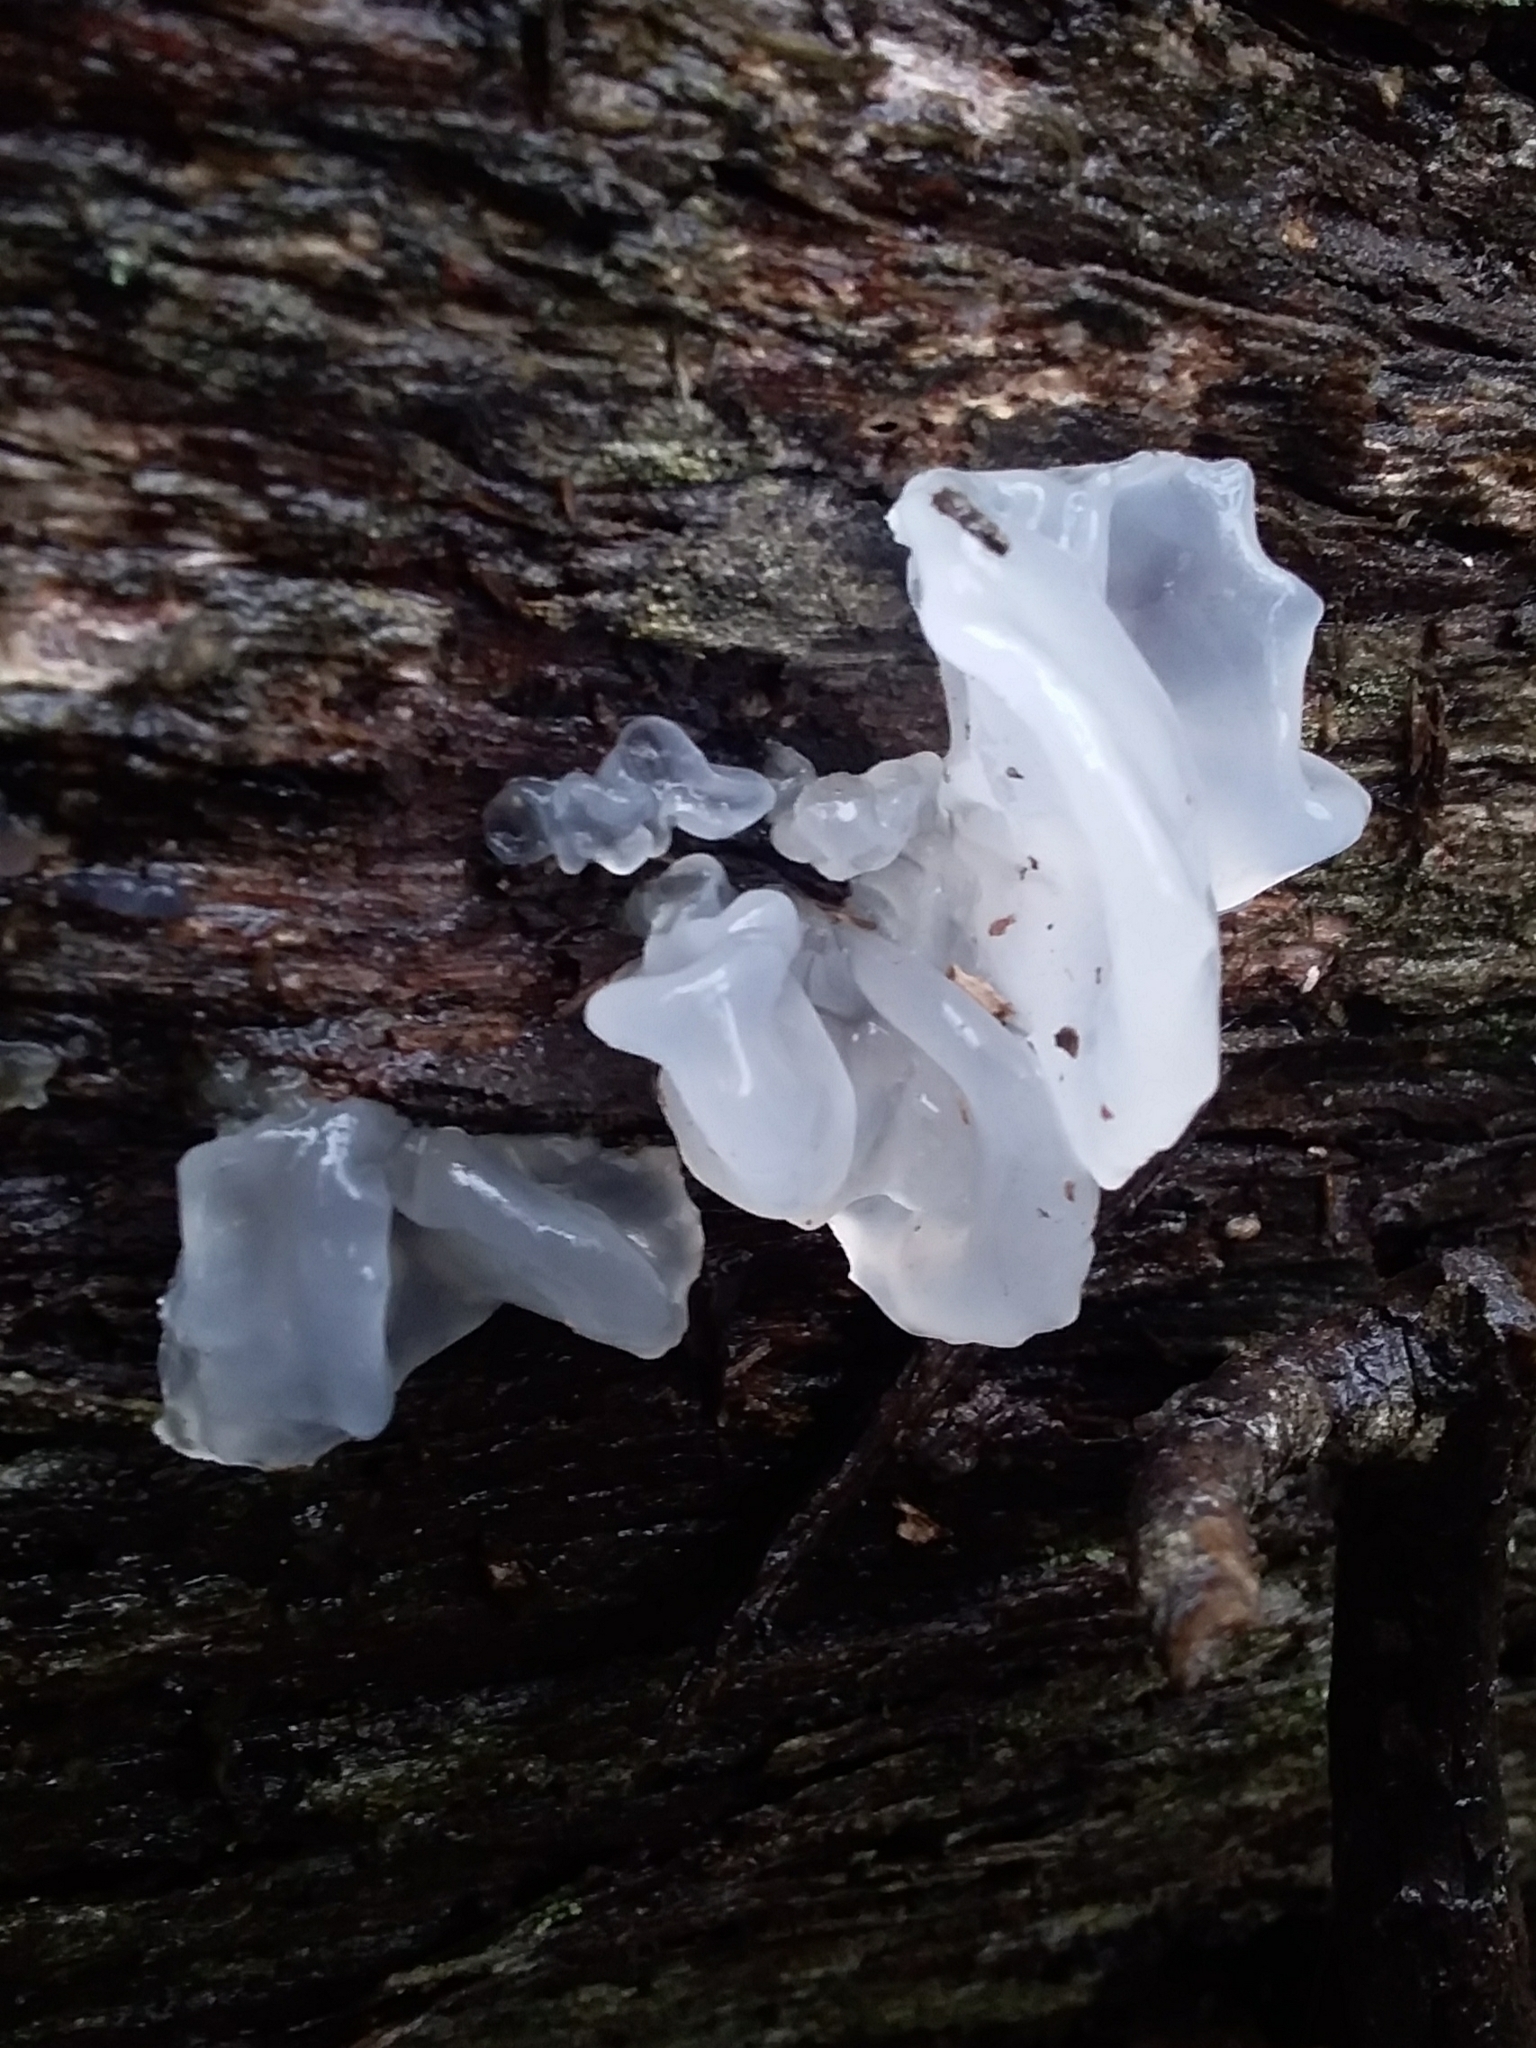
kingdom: Fungi
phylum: Basidiomycota
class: Tremellomycetes
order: Tremellales
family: Tremellaceae
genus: Tremella
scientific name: Tremella fuciformis
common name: Snow fungus
